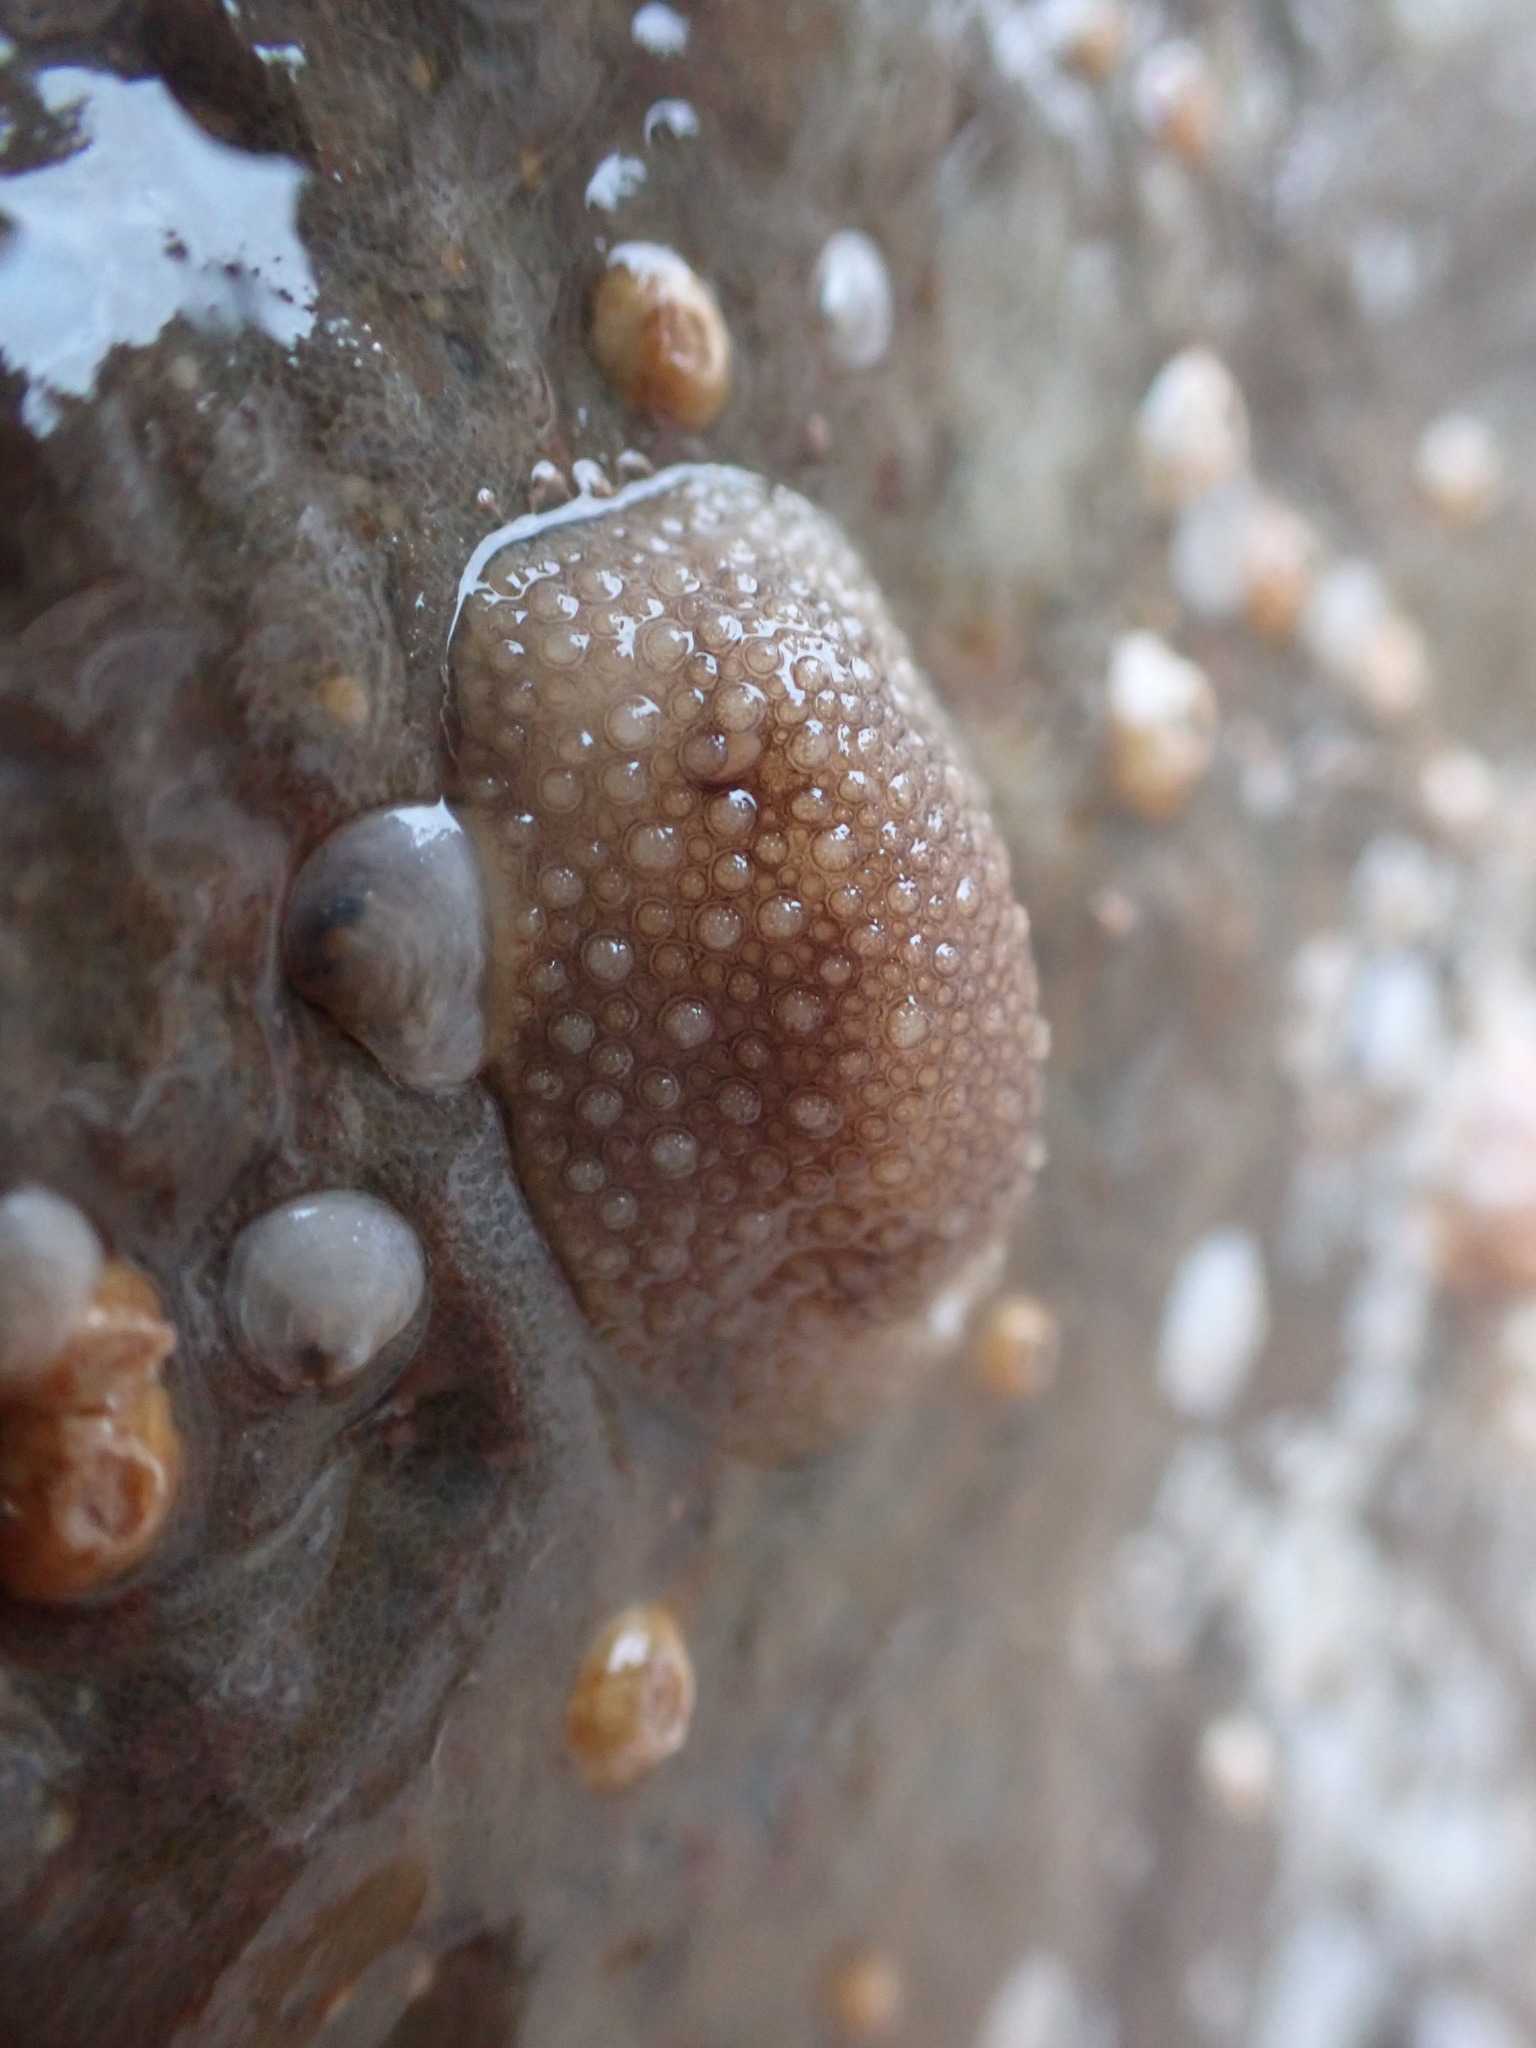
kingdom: Animalia
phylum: Mollusca
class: Gastropoda
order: Nudibranchia
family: Onchidorididae
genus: Onchidoris
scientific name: Onchidoris bilamellata
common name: Barnacle-eating onchidoris
